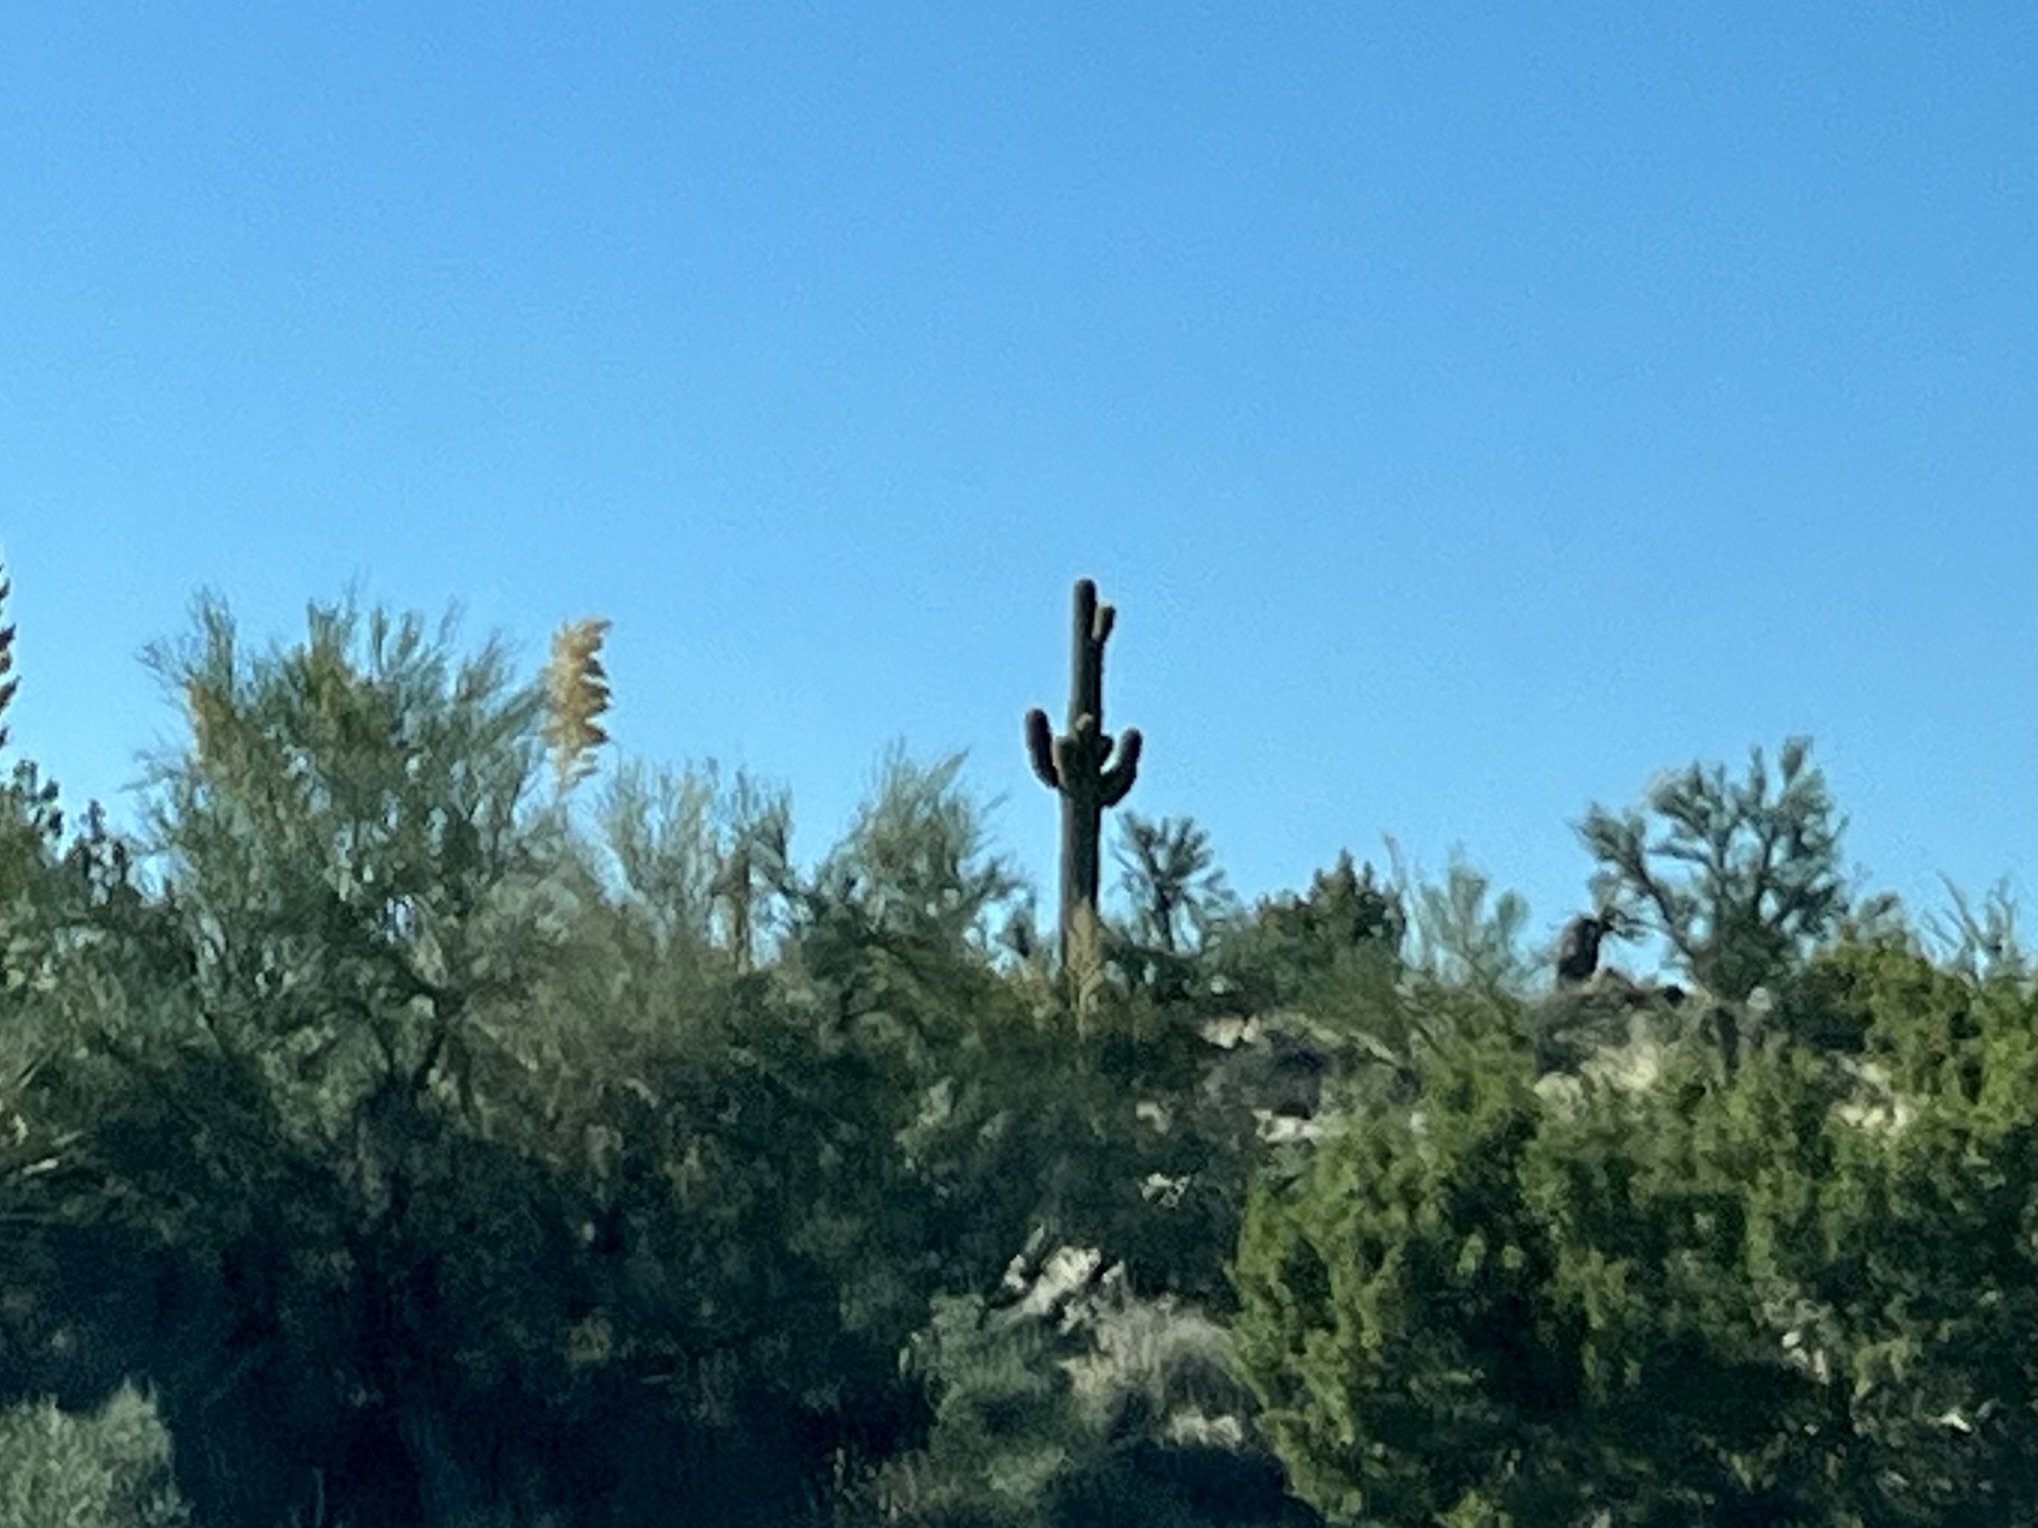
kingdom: Plantae
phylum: Tracheophyta
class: Magnoliopsida
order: Caryophyllales
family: Cactaceae
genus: Carnegiea
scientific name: Carnegiea gigantea
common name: Saguaro
